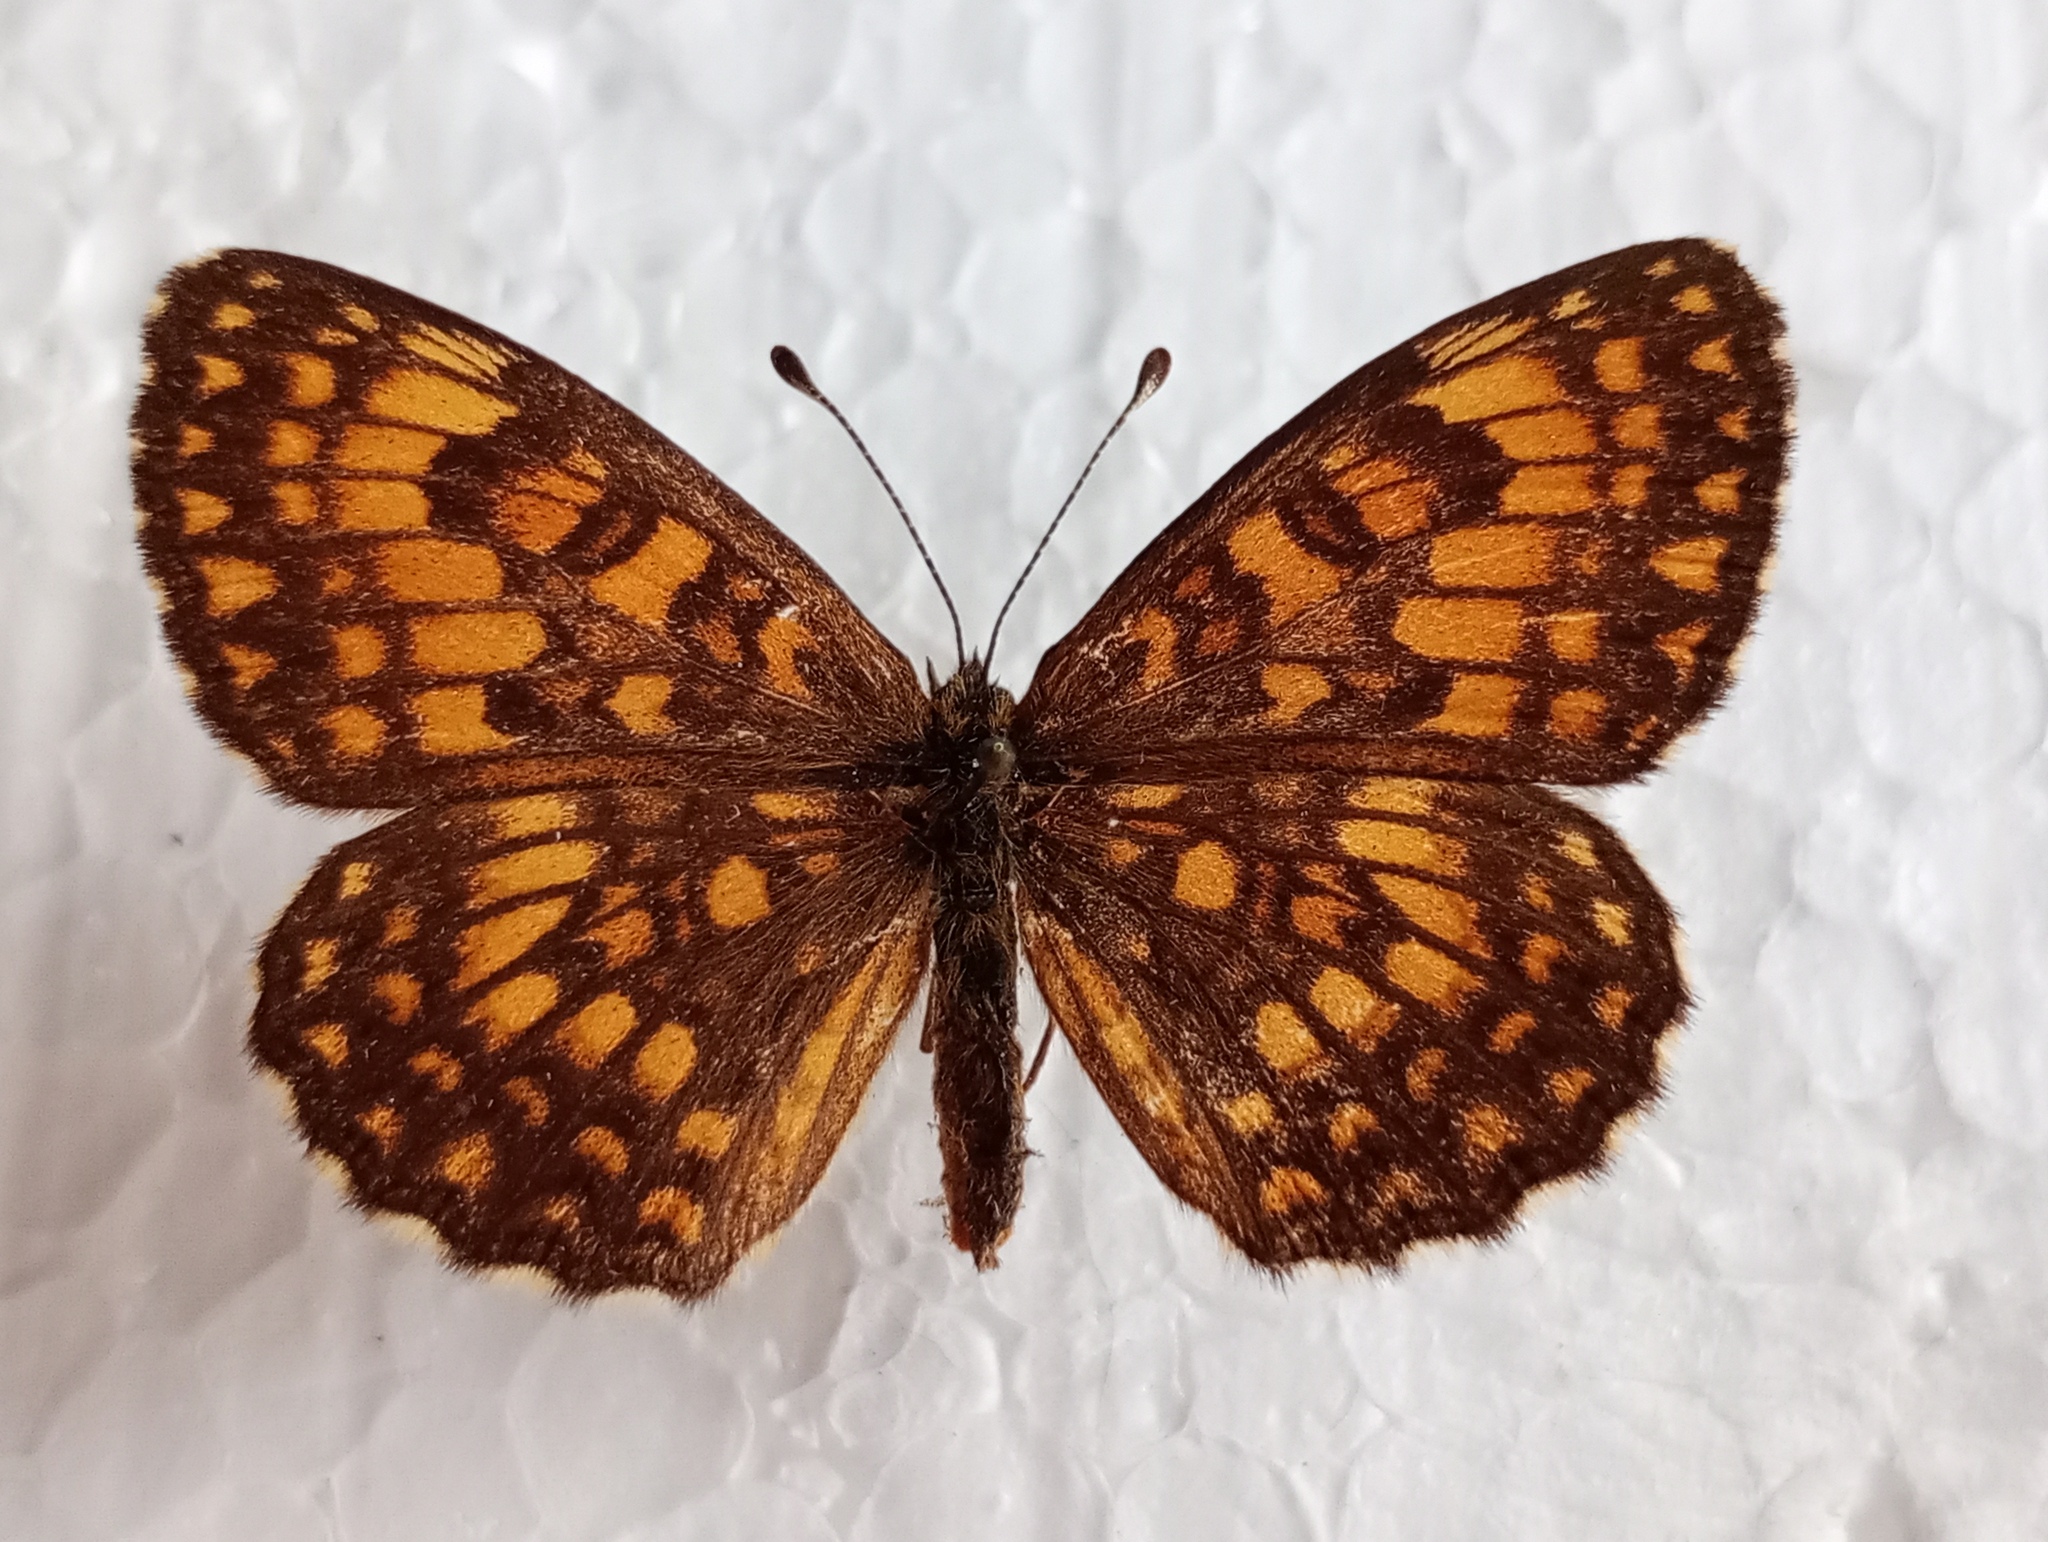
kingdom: Animalia
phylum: Arthropoda
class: Insecta
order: Lepidoptera
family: Nymphalidae
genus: Mellicta
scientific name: Mellicta athalia
